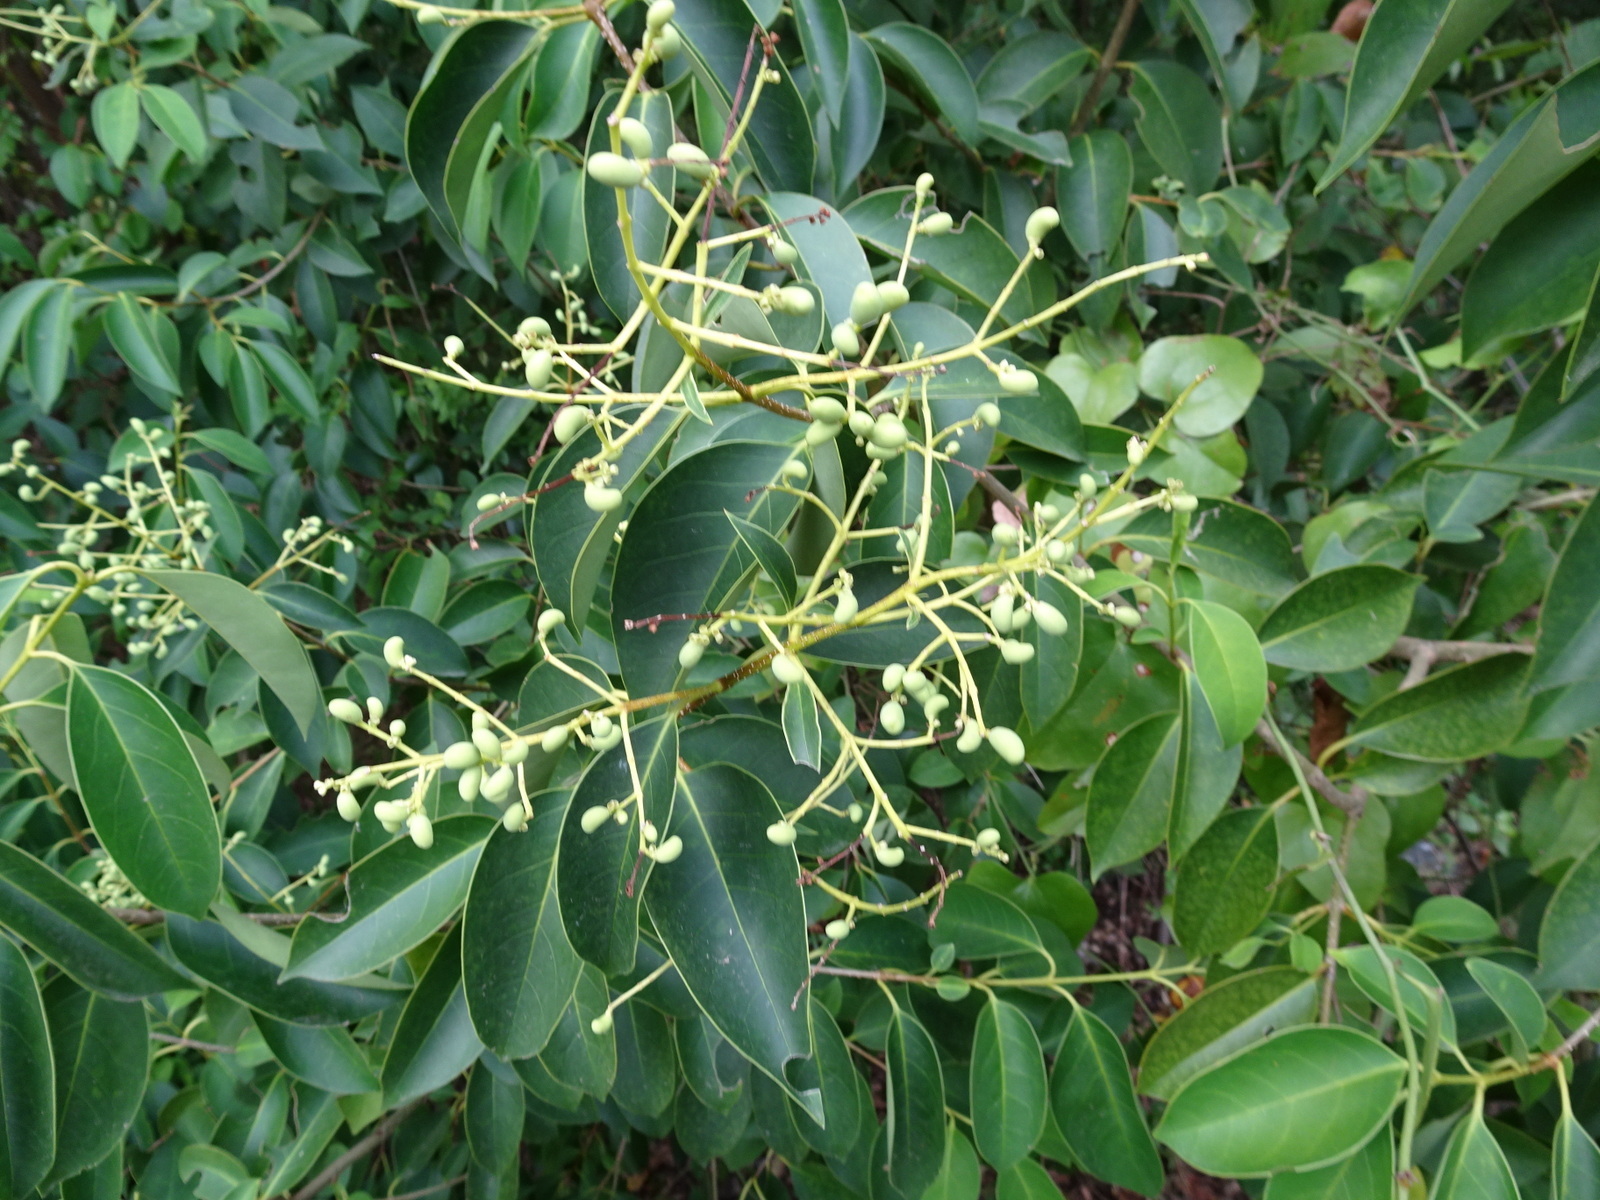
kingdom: Plantae
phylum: Tracheophyta
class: Magnoliopsida
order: Lamiales
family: Oleaceae
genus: Ligustrum
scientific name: Ligustrum lucidum
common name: Glossy privet
